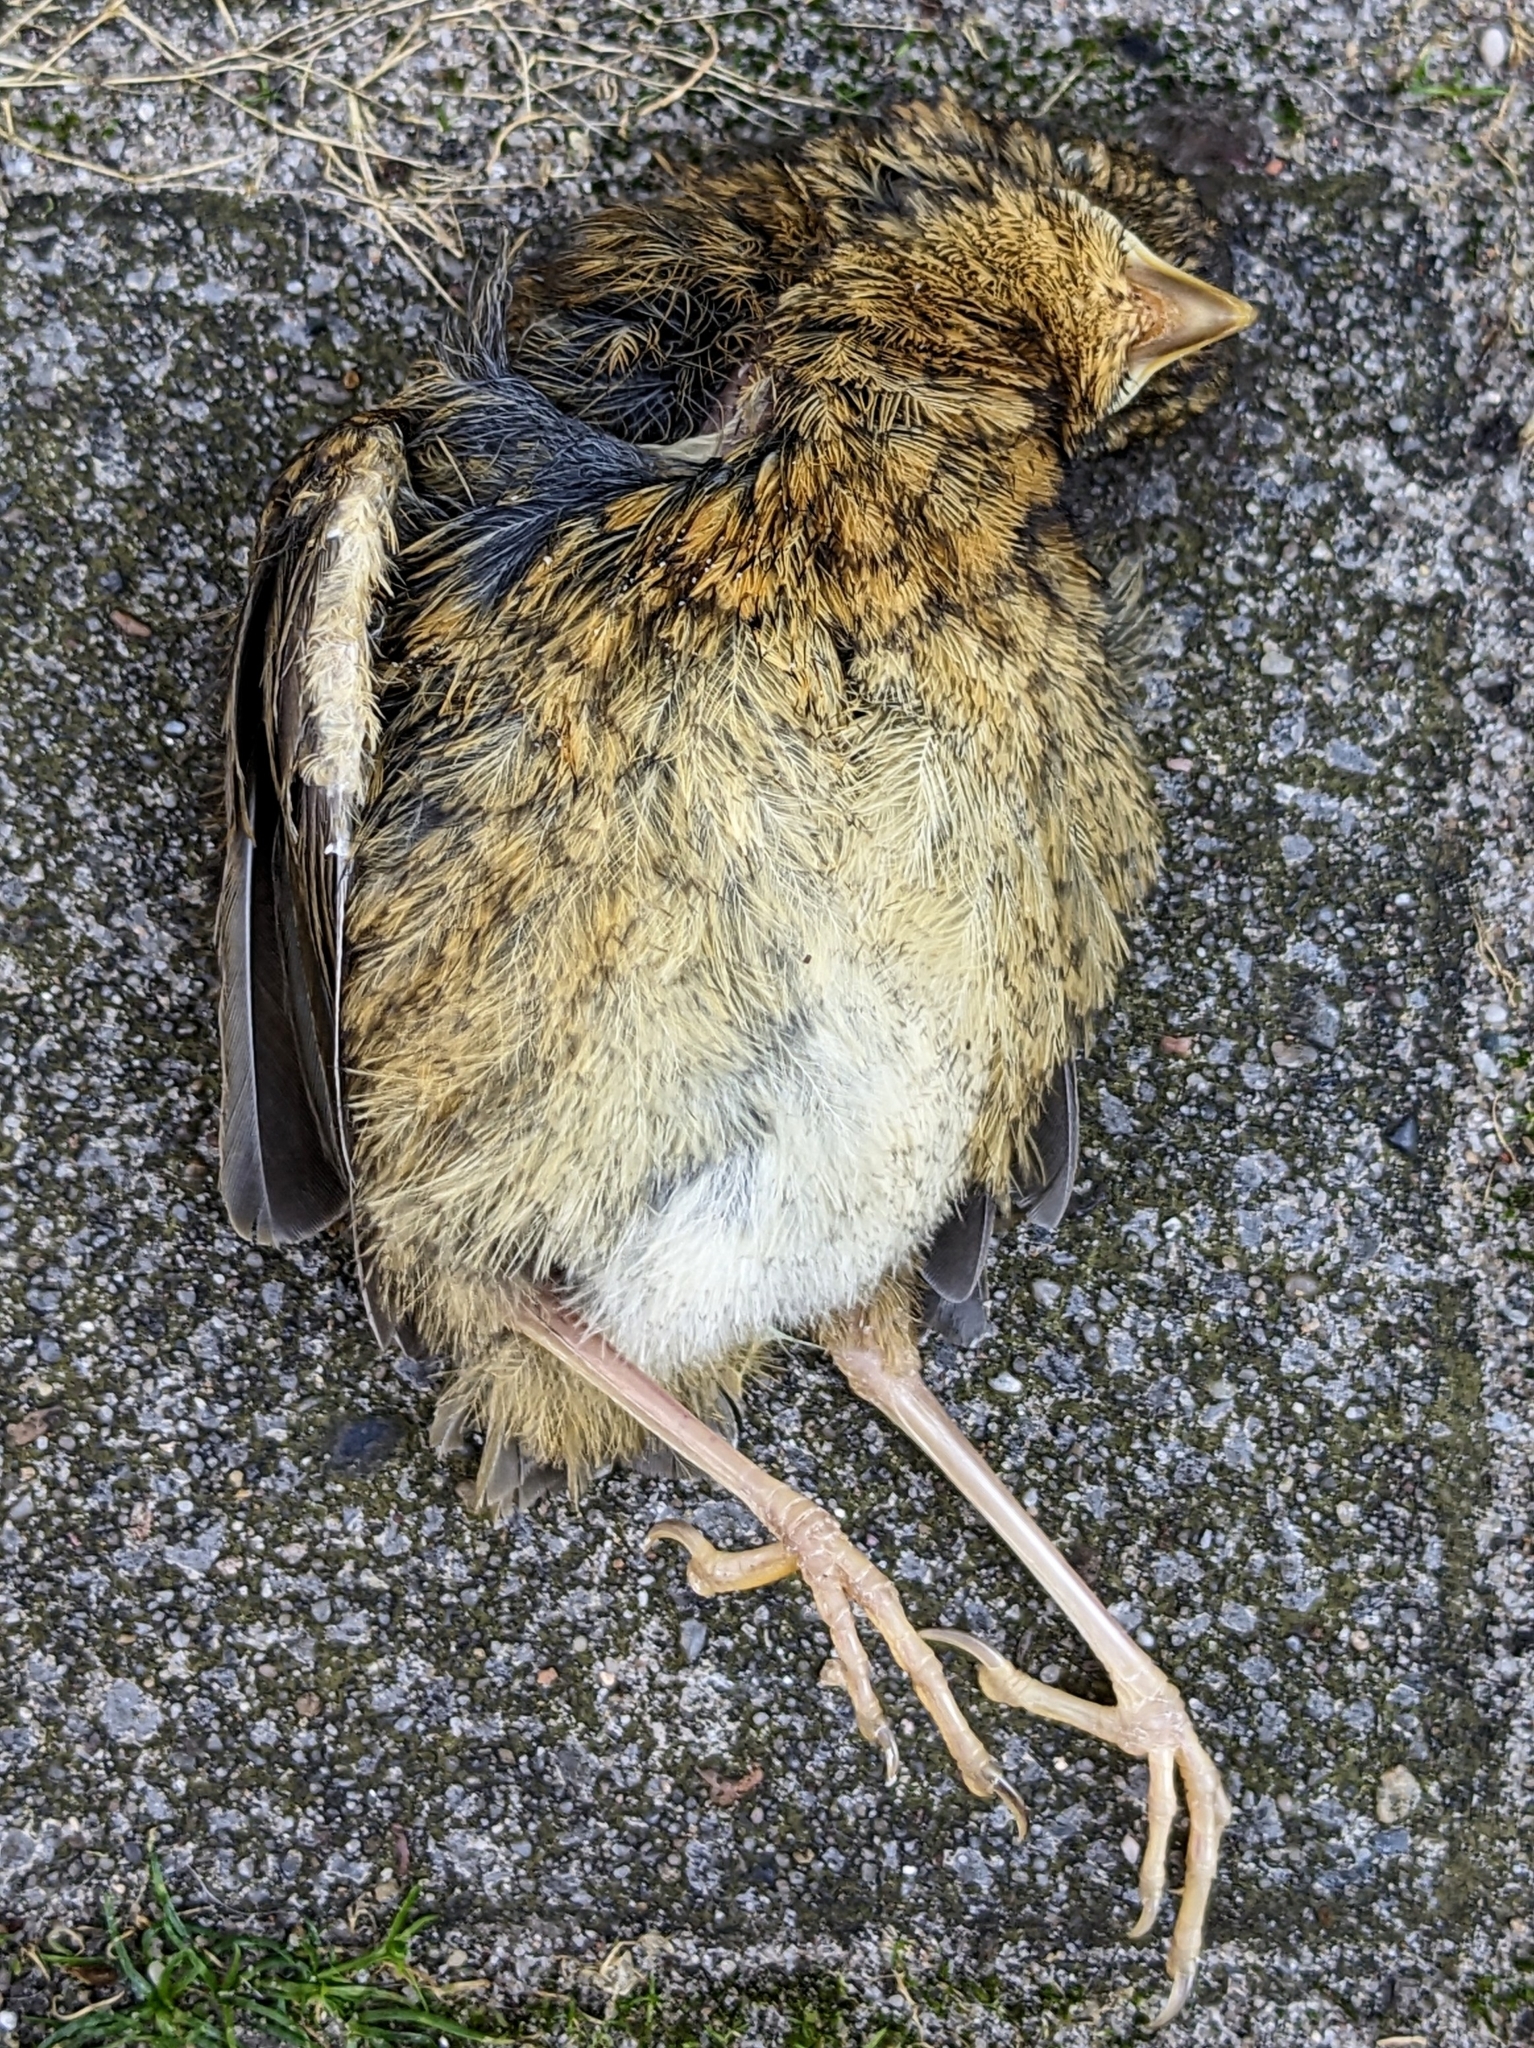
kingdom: Animalia
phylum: Chordata
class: Aves
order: Passeriformes
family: Muscicapidae
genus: Erithacus
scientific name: Erithacus rubecula
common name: European robin
